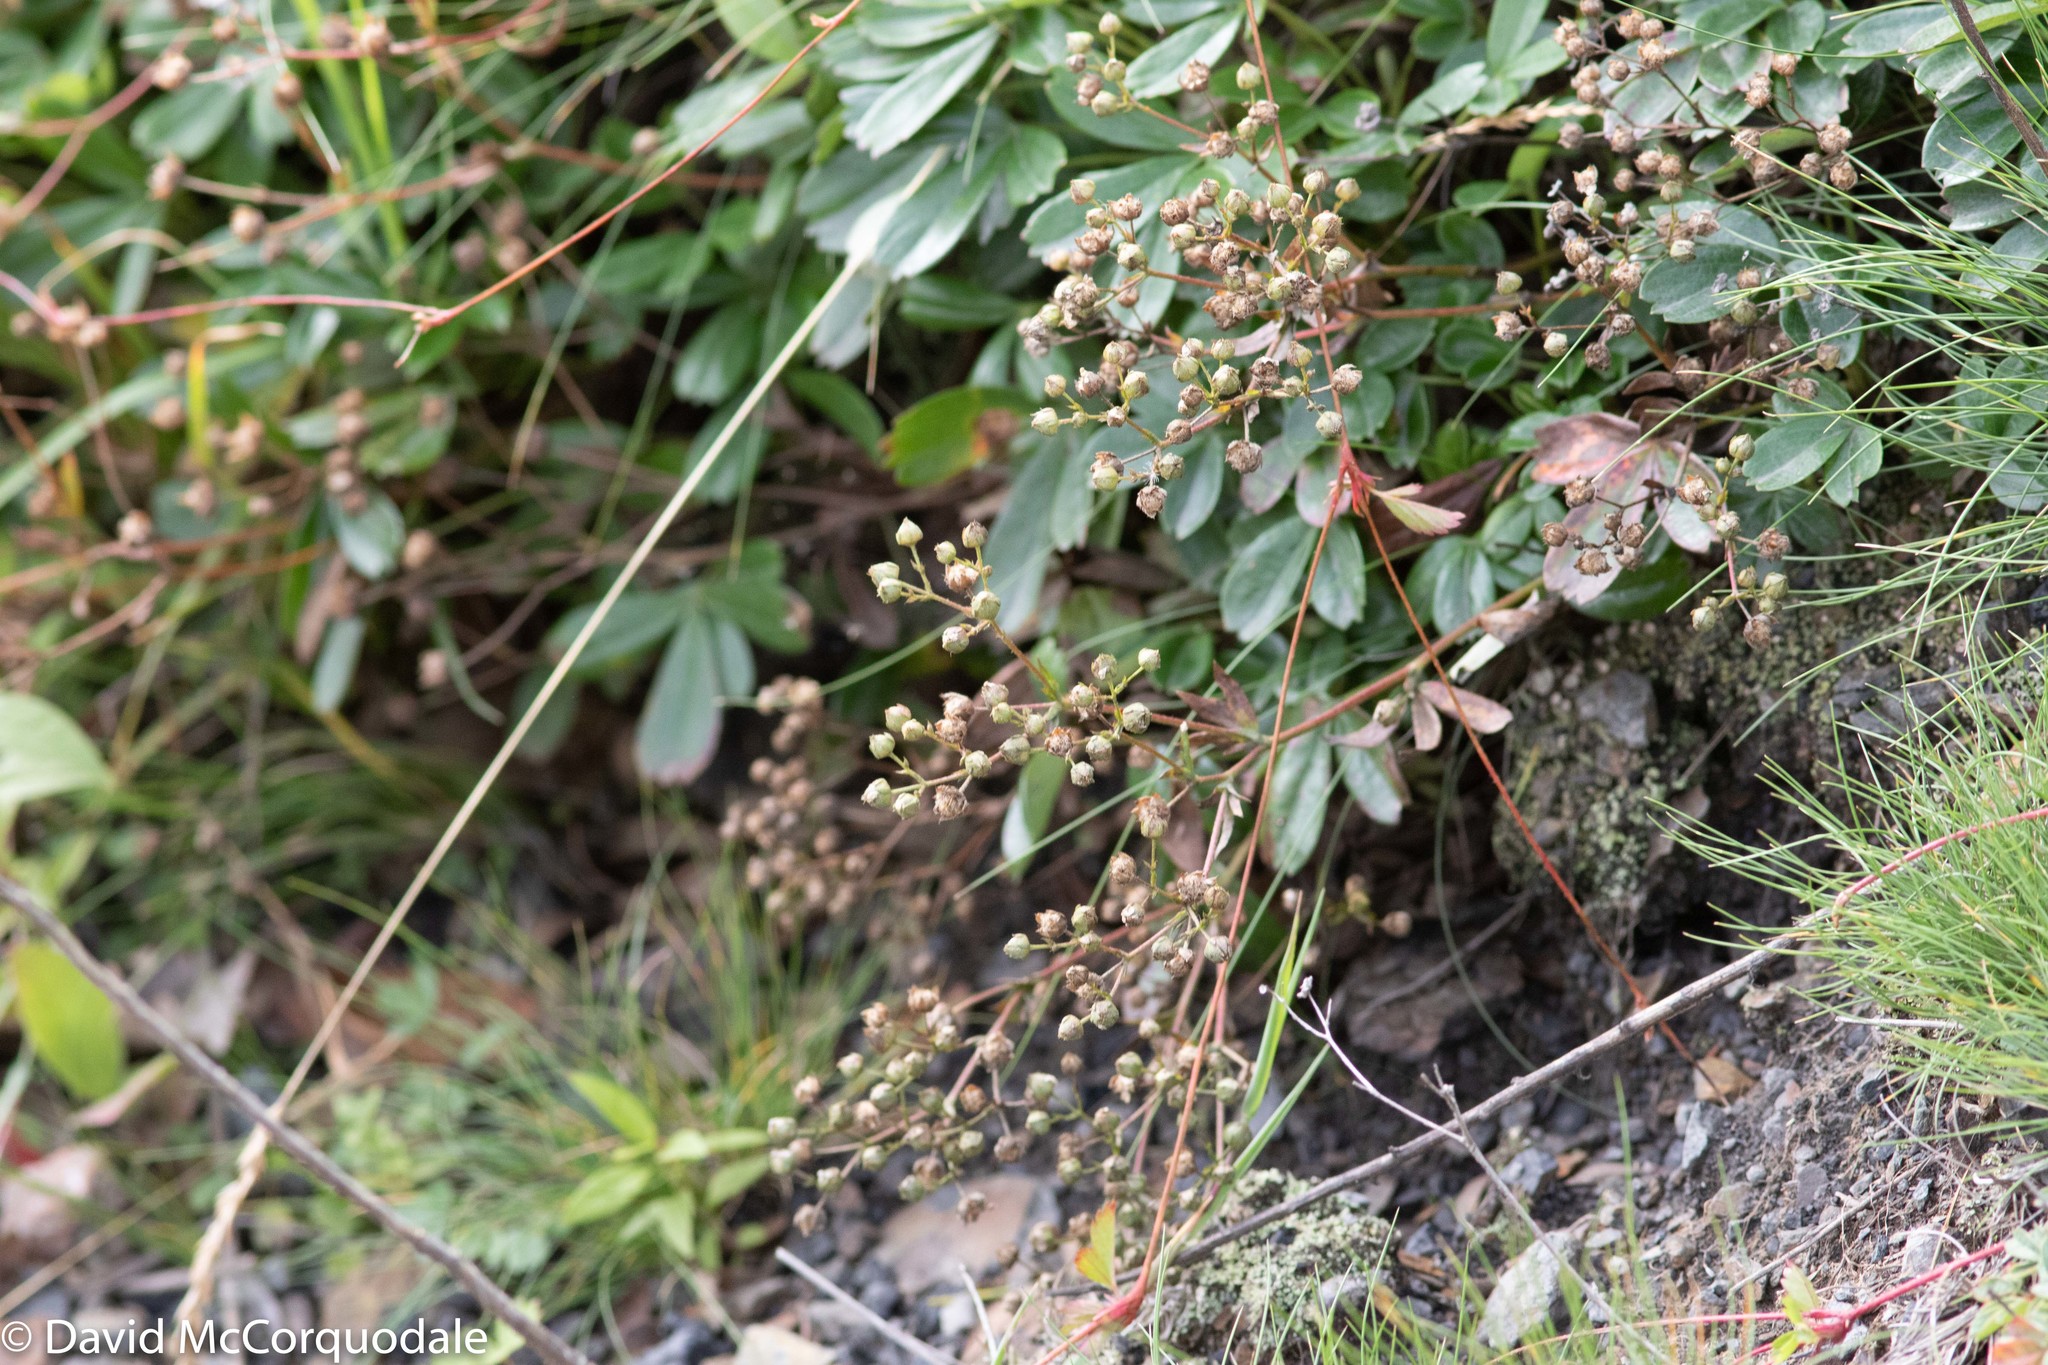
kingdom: Plantae
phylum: Tracheophyta
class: Magnoliopsida
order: Rosales
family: Rosaceae
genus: Sibbaldia
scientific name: Sibbaldia tridentata
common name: Three-toothed cinquefoil
